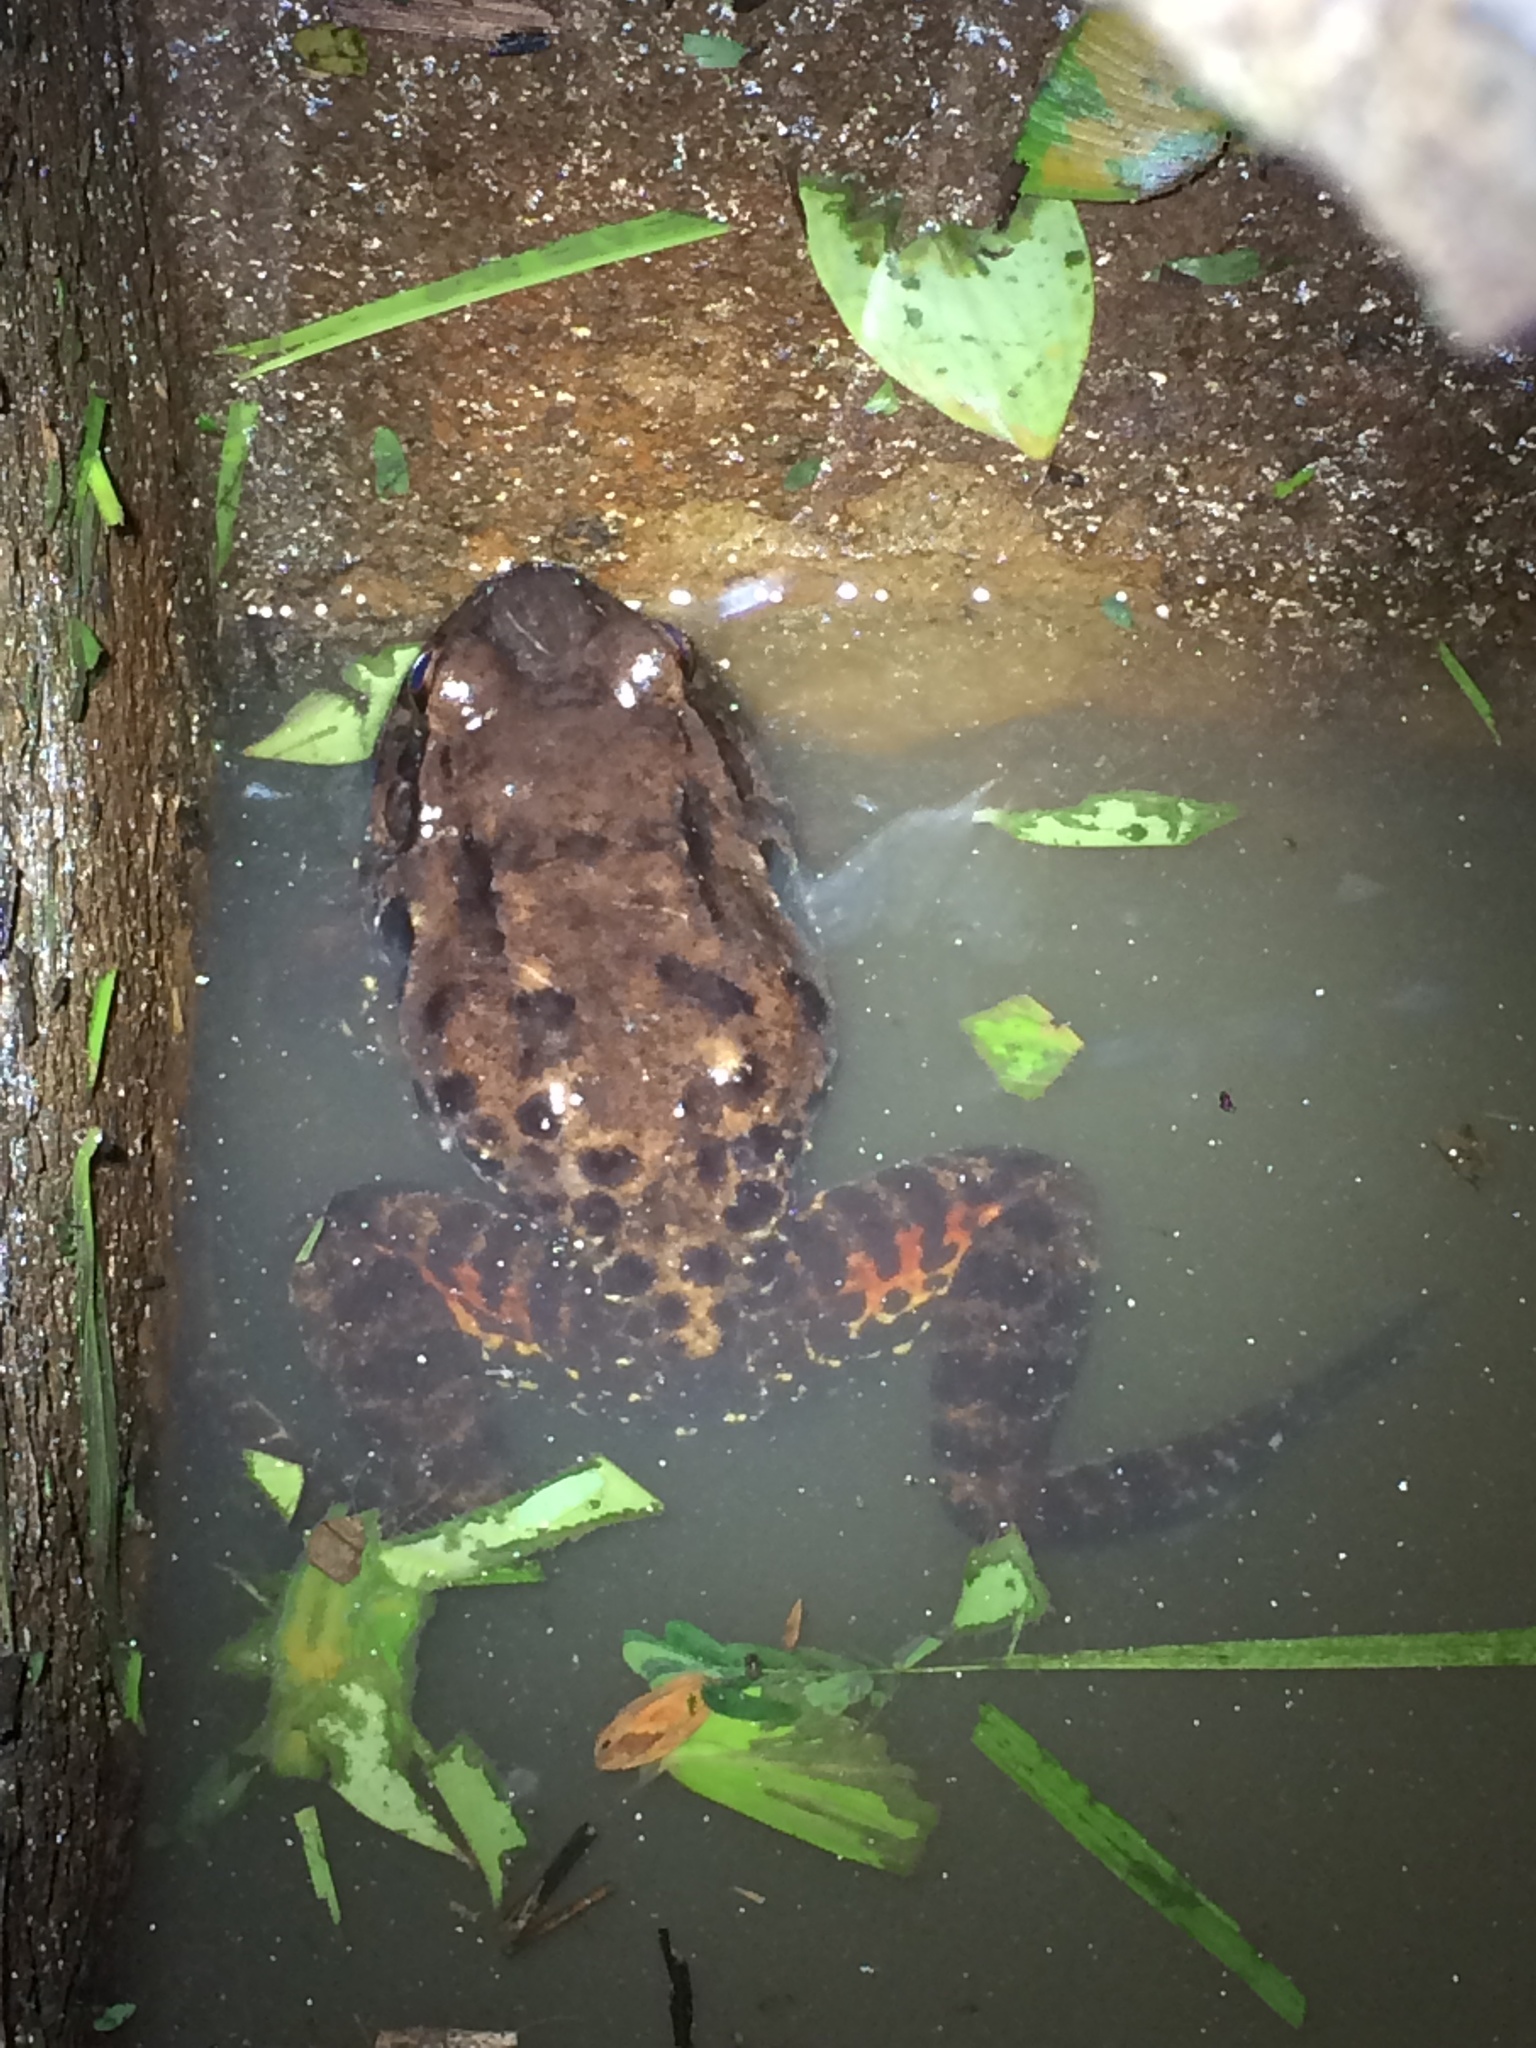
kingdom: Animalia
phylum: Chordata
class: Amphibia
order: Anura
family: Leptodactylidae
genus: Leptodactylus
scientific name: Leptodactylus vastus
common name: Northeastern pepper frog
